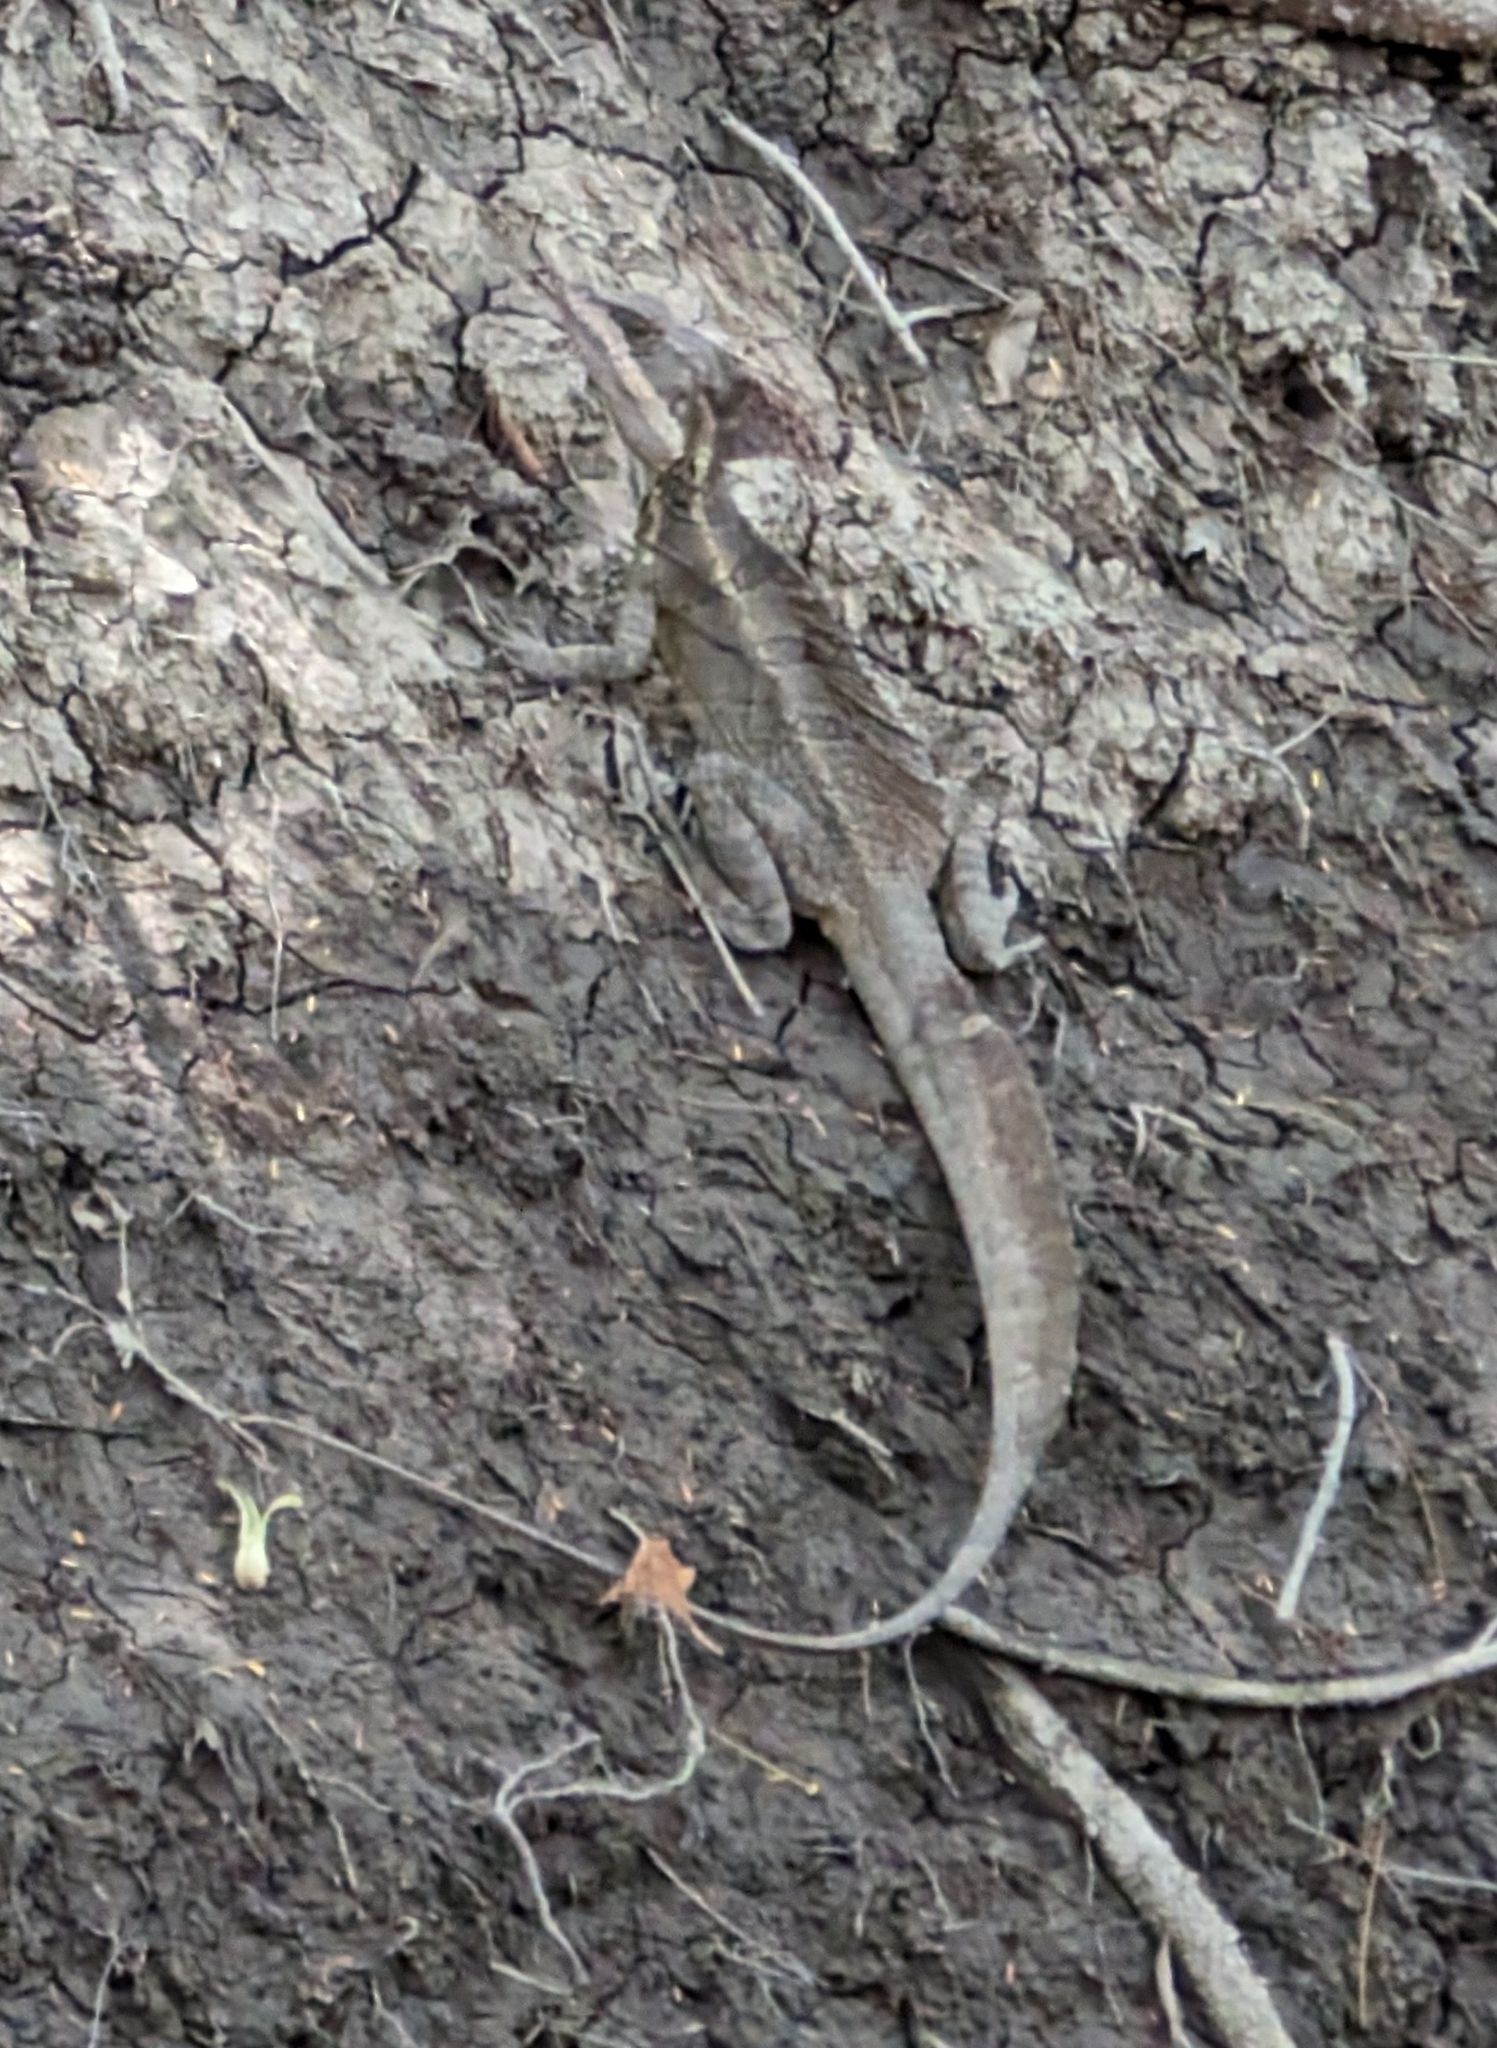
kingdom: Animalia
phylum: Chordata
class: Squamata
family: Corytophanidae
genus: Basiliscus
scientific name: Basiliscus basiliscus
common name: Common basilisk
